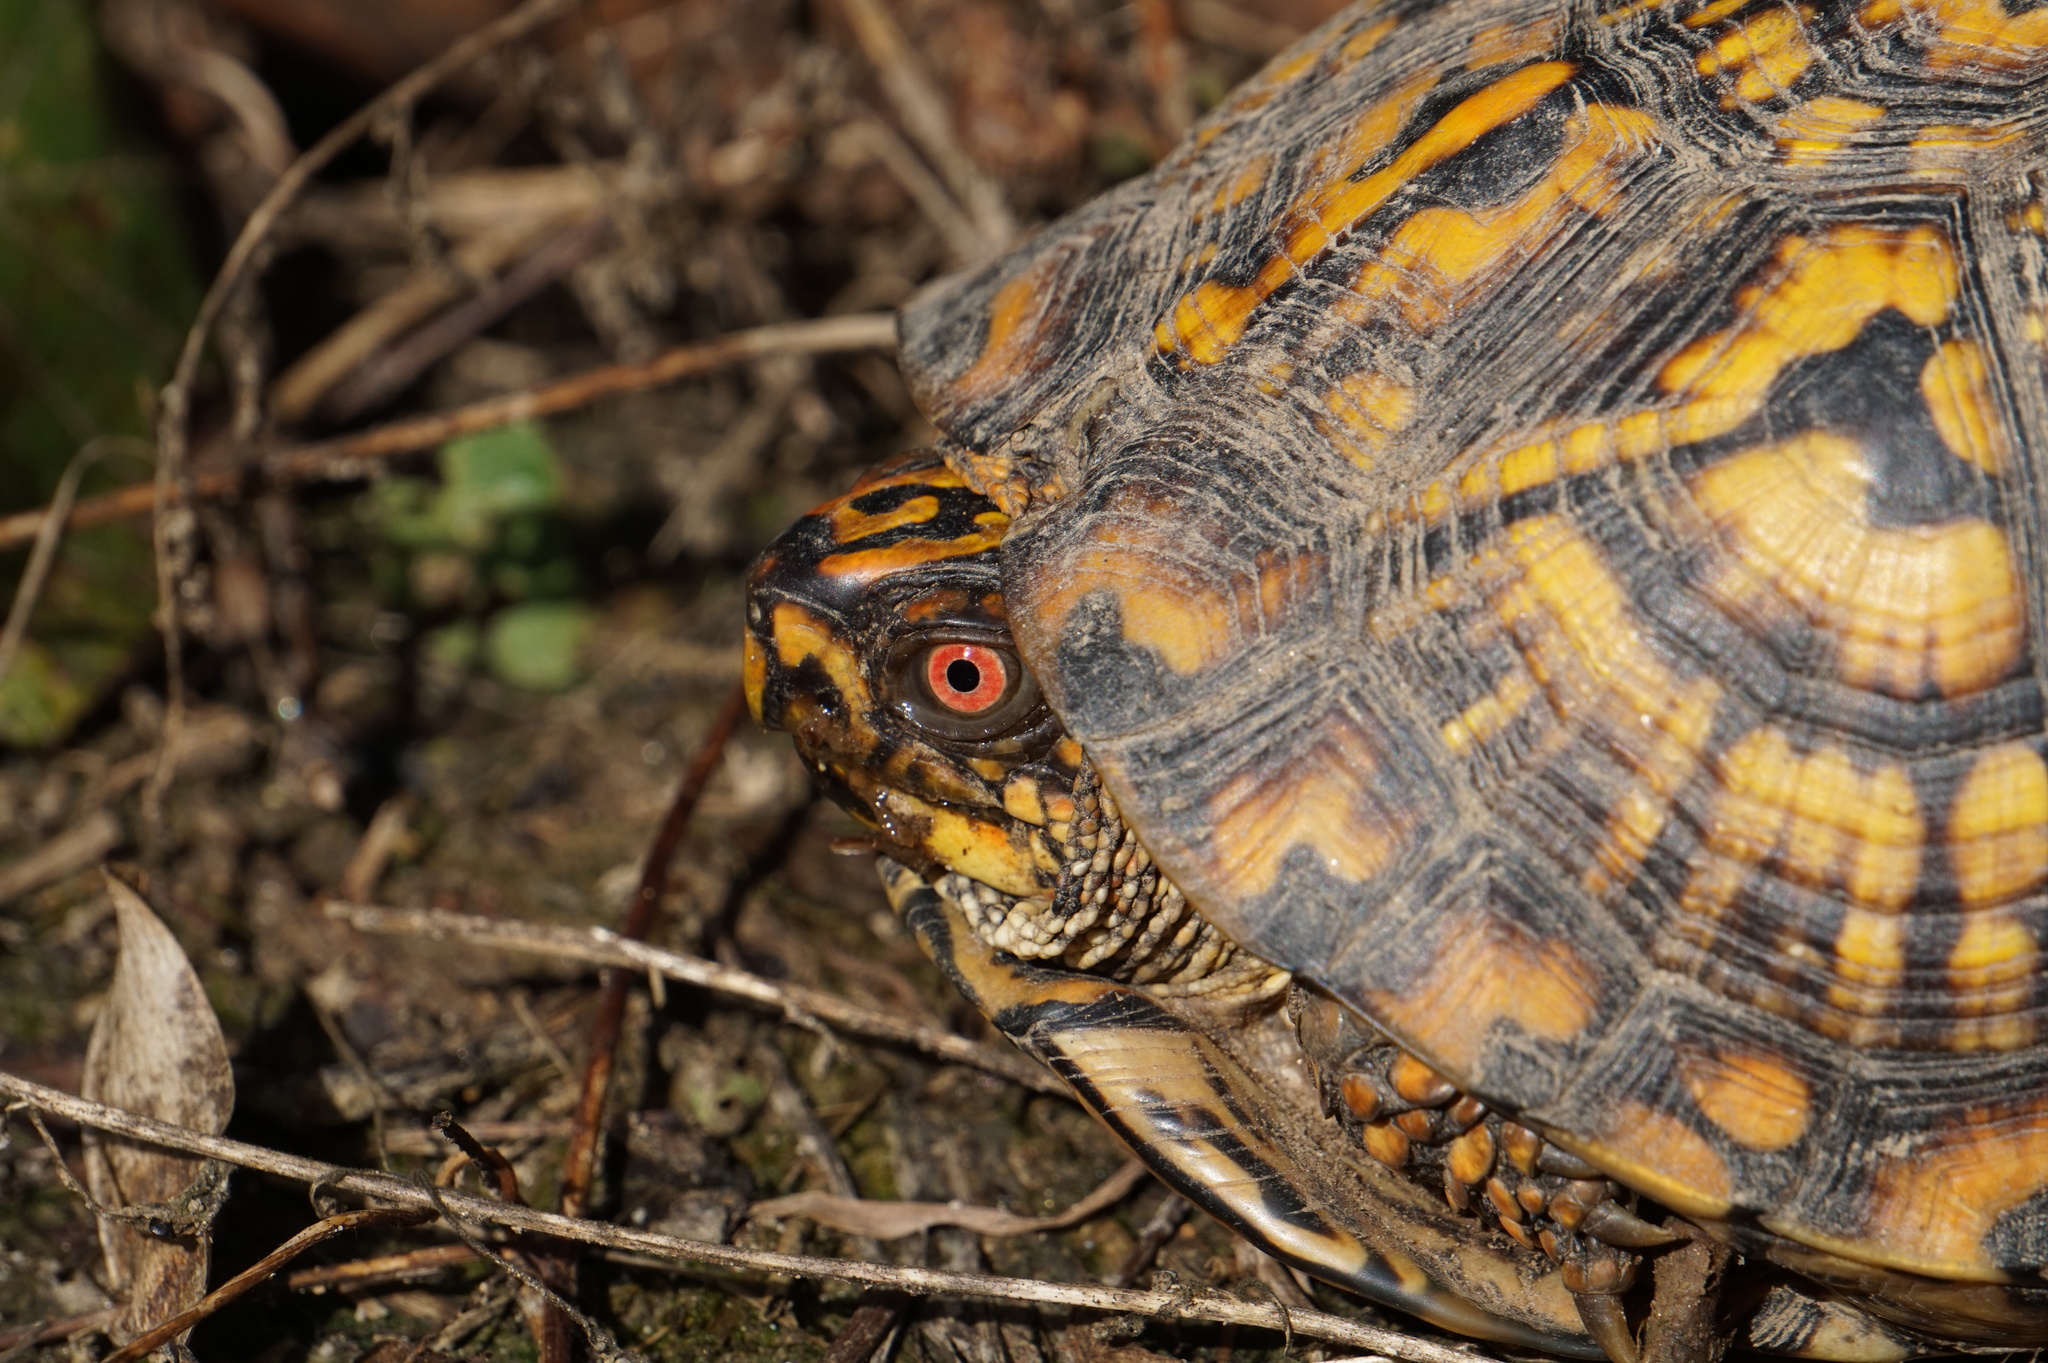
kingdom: Animalia
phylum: Chordata
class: Testudines
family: Emydidae
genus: Terrapene
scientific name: Terrapene carolina
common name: Common box turtle
